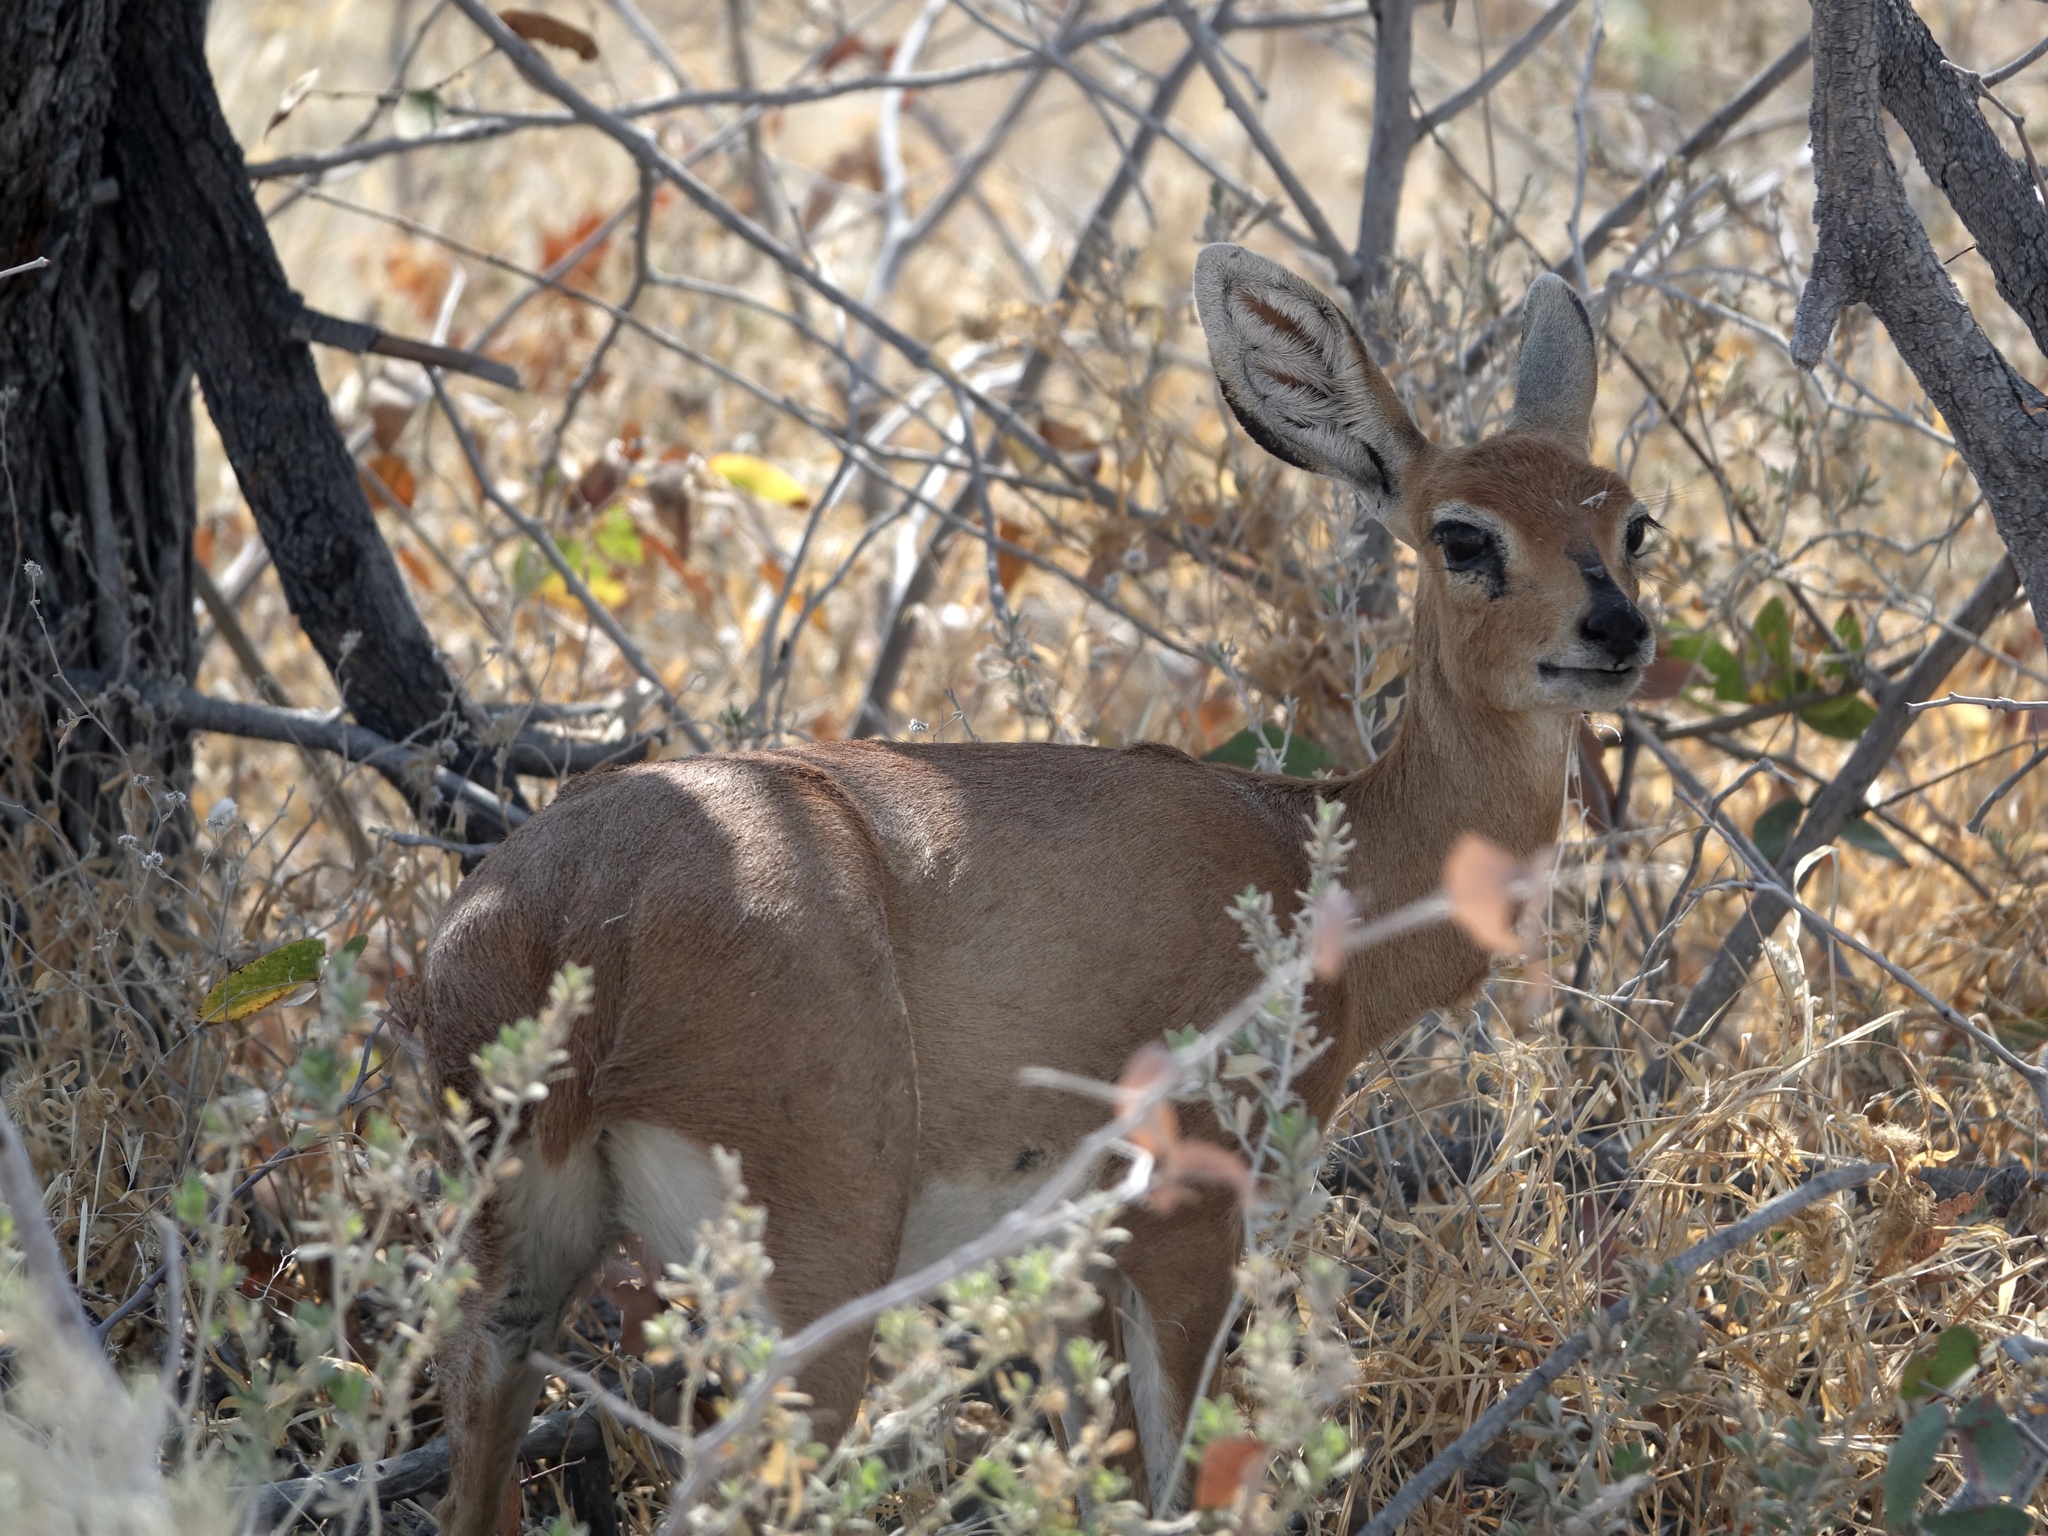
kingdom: Animalia
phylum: Chordata
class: Mammalia
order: Artiodactyla
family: Bovidae
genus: Raphicerus
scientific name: Raphicerus campestris
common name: Steenbok
